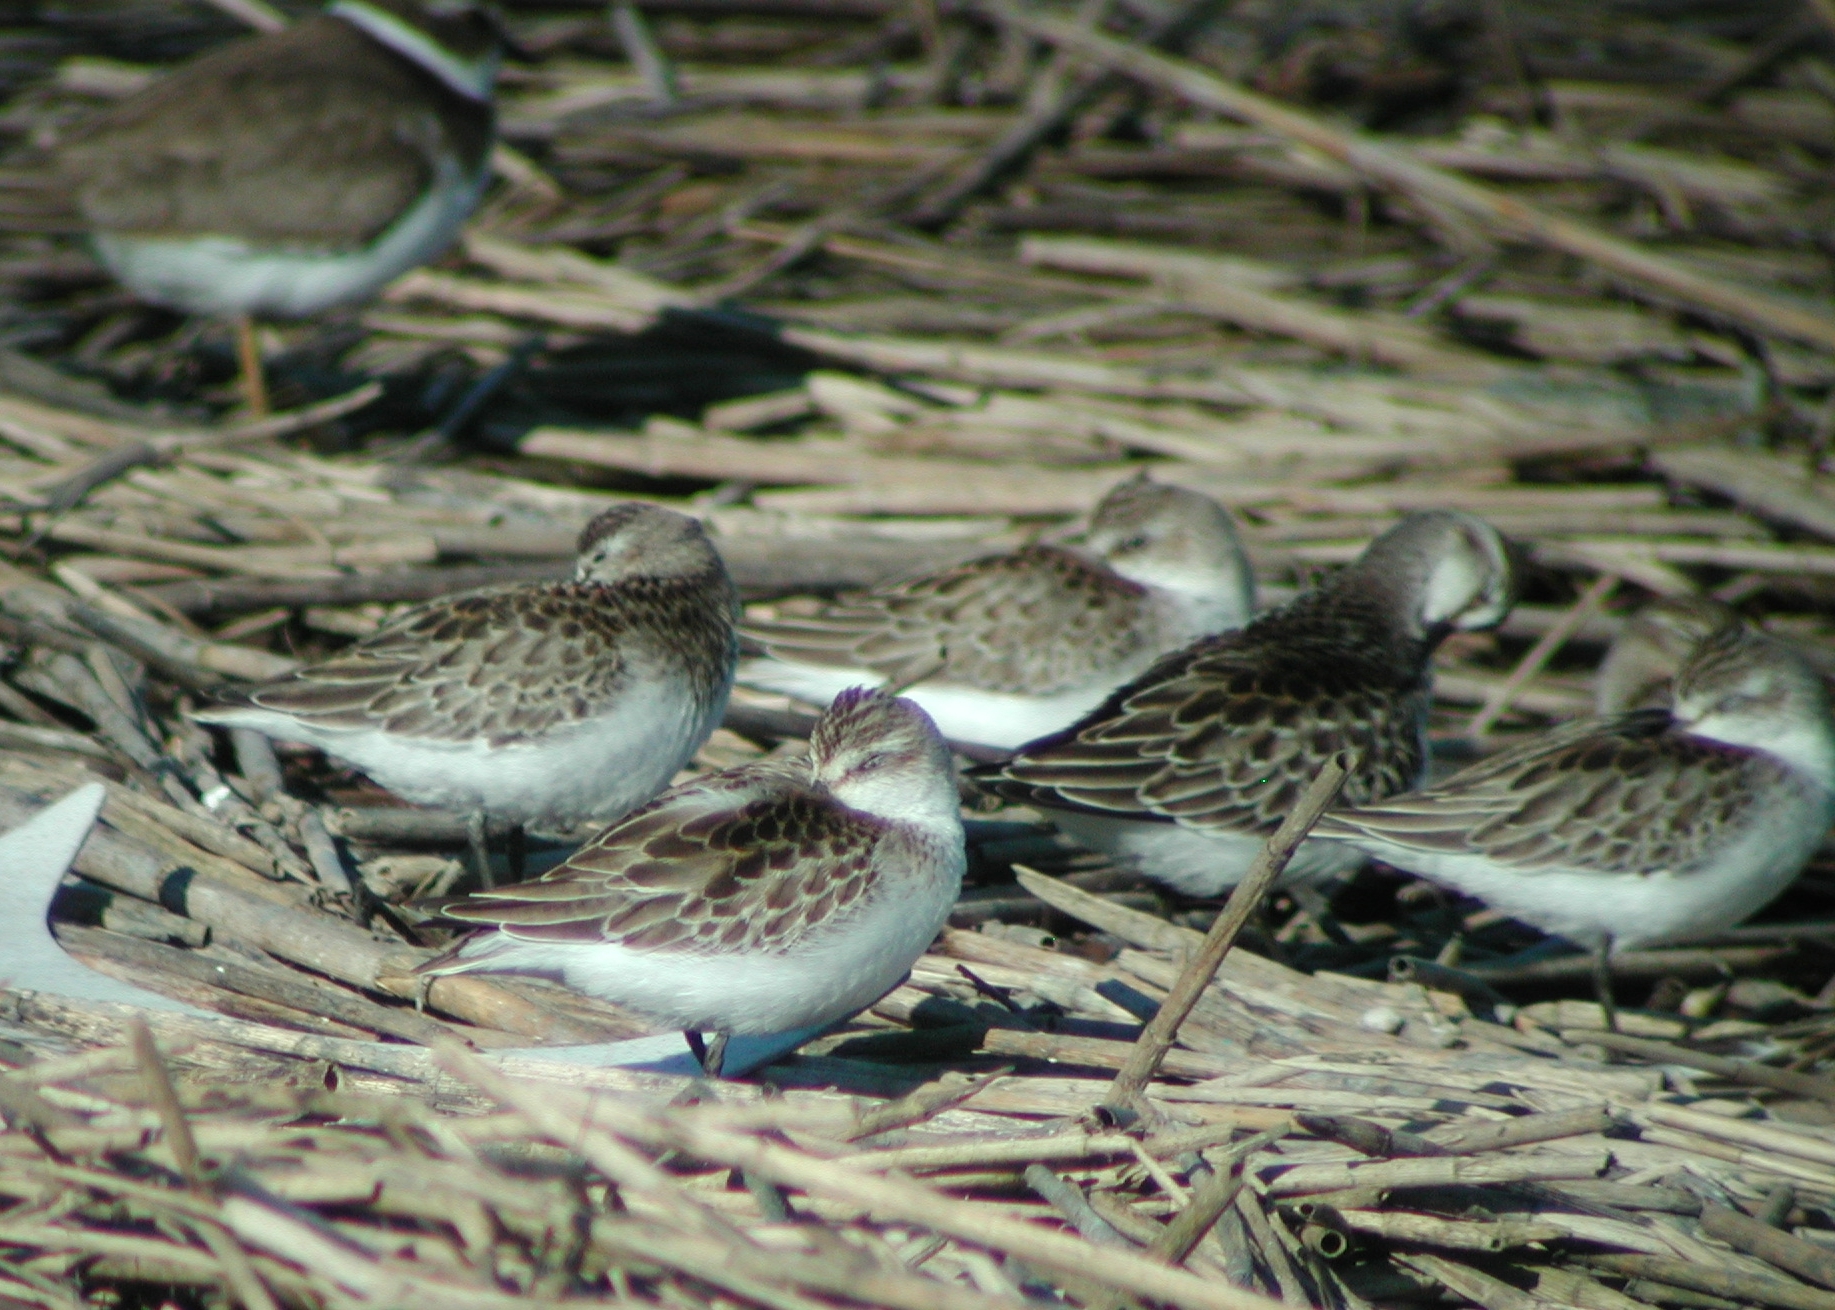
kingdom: Animalia
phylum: Chordata
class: Aves
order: Charadriiformes
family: Scolopacidae
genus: Calidris
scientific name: Calidris pusilla
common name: Semipalmated sandpiper
